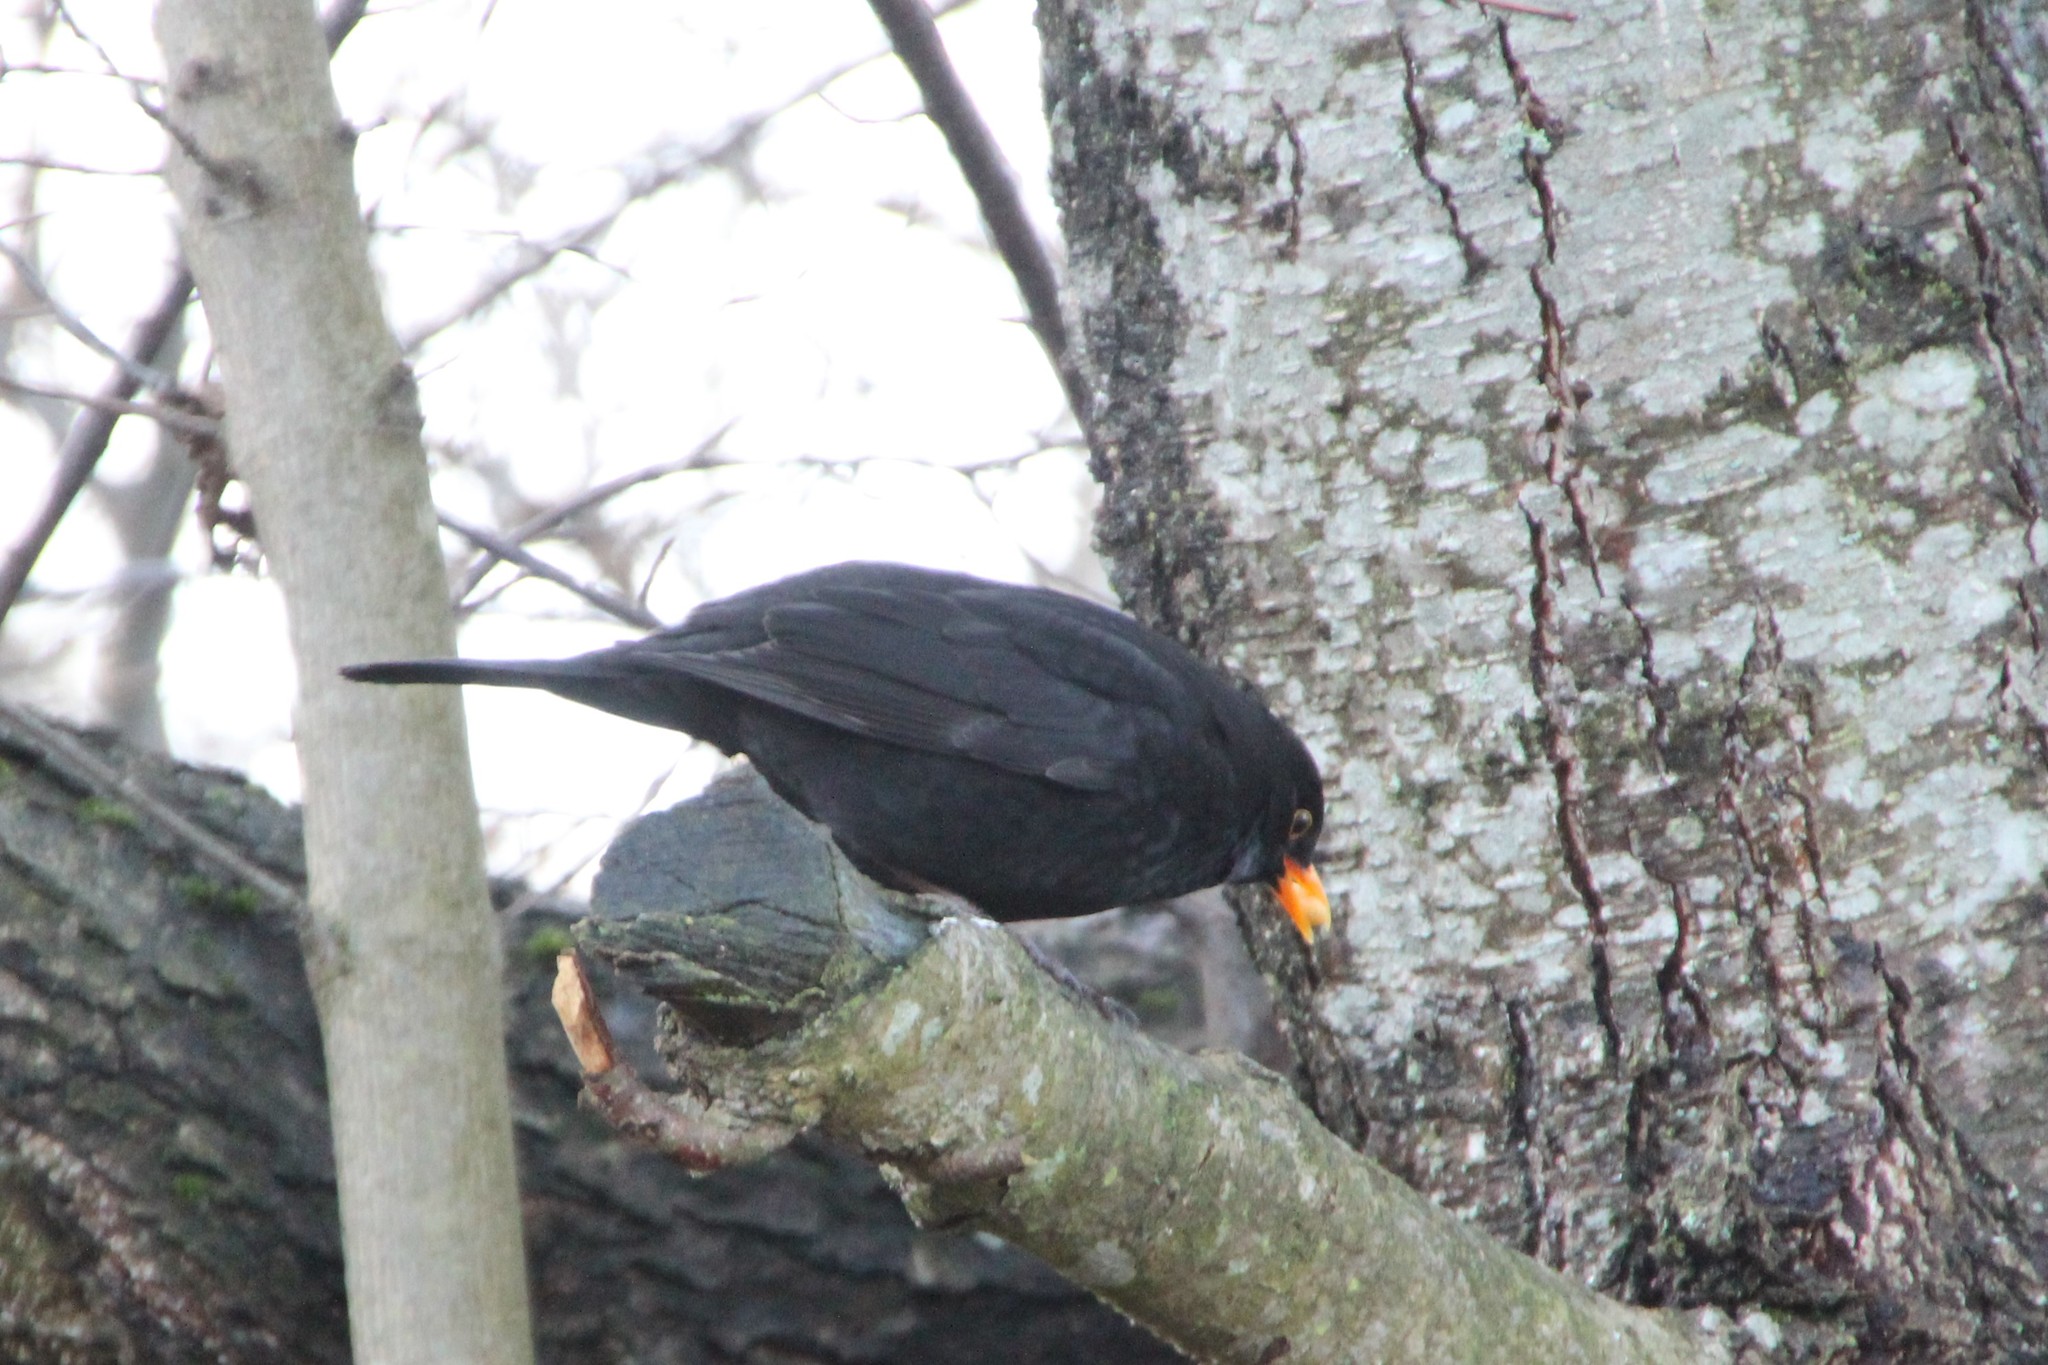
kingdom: Animalia
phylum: Chordata
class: Aves
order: Passeriformes
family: Turdidae
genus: Turdus
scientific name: Turdus merula
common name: Common blackbird
